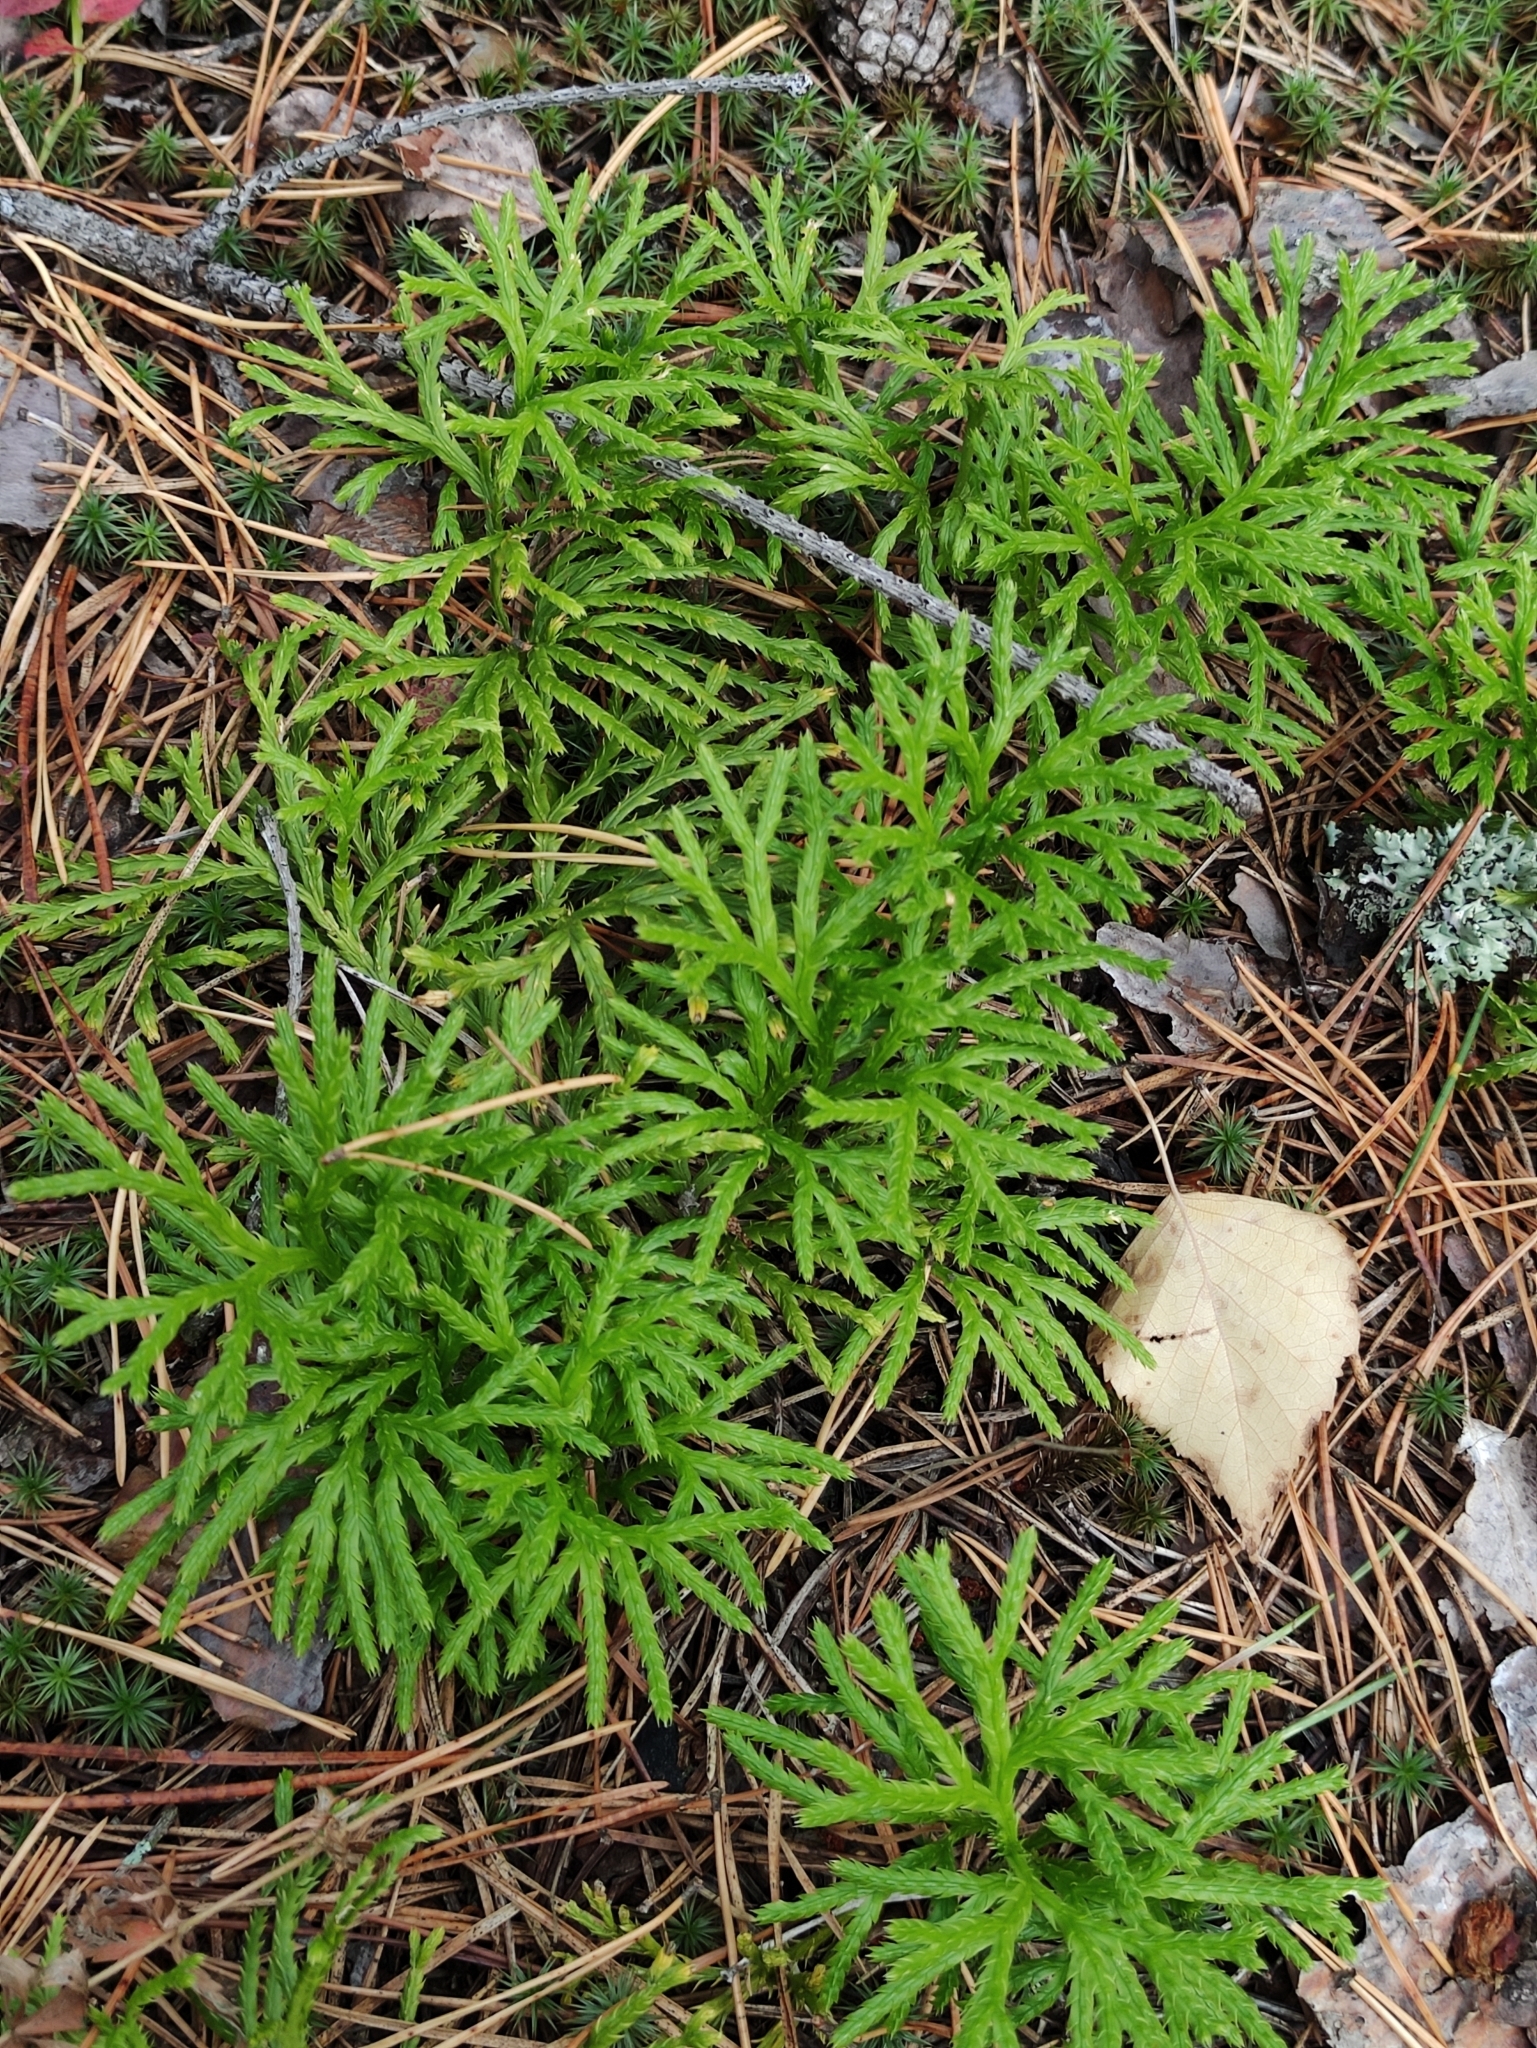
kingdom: Plantae
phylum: Tracheophyta
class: Lycopodiopsida
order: Lycopodiales
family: Lycopodiaceae
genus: Diphasiastrum
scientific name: Diphasiastrum complanatum
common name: Northern running-pine
